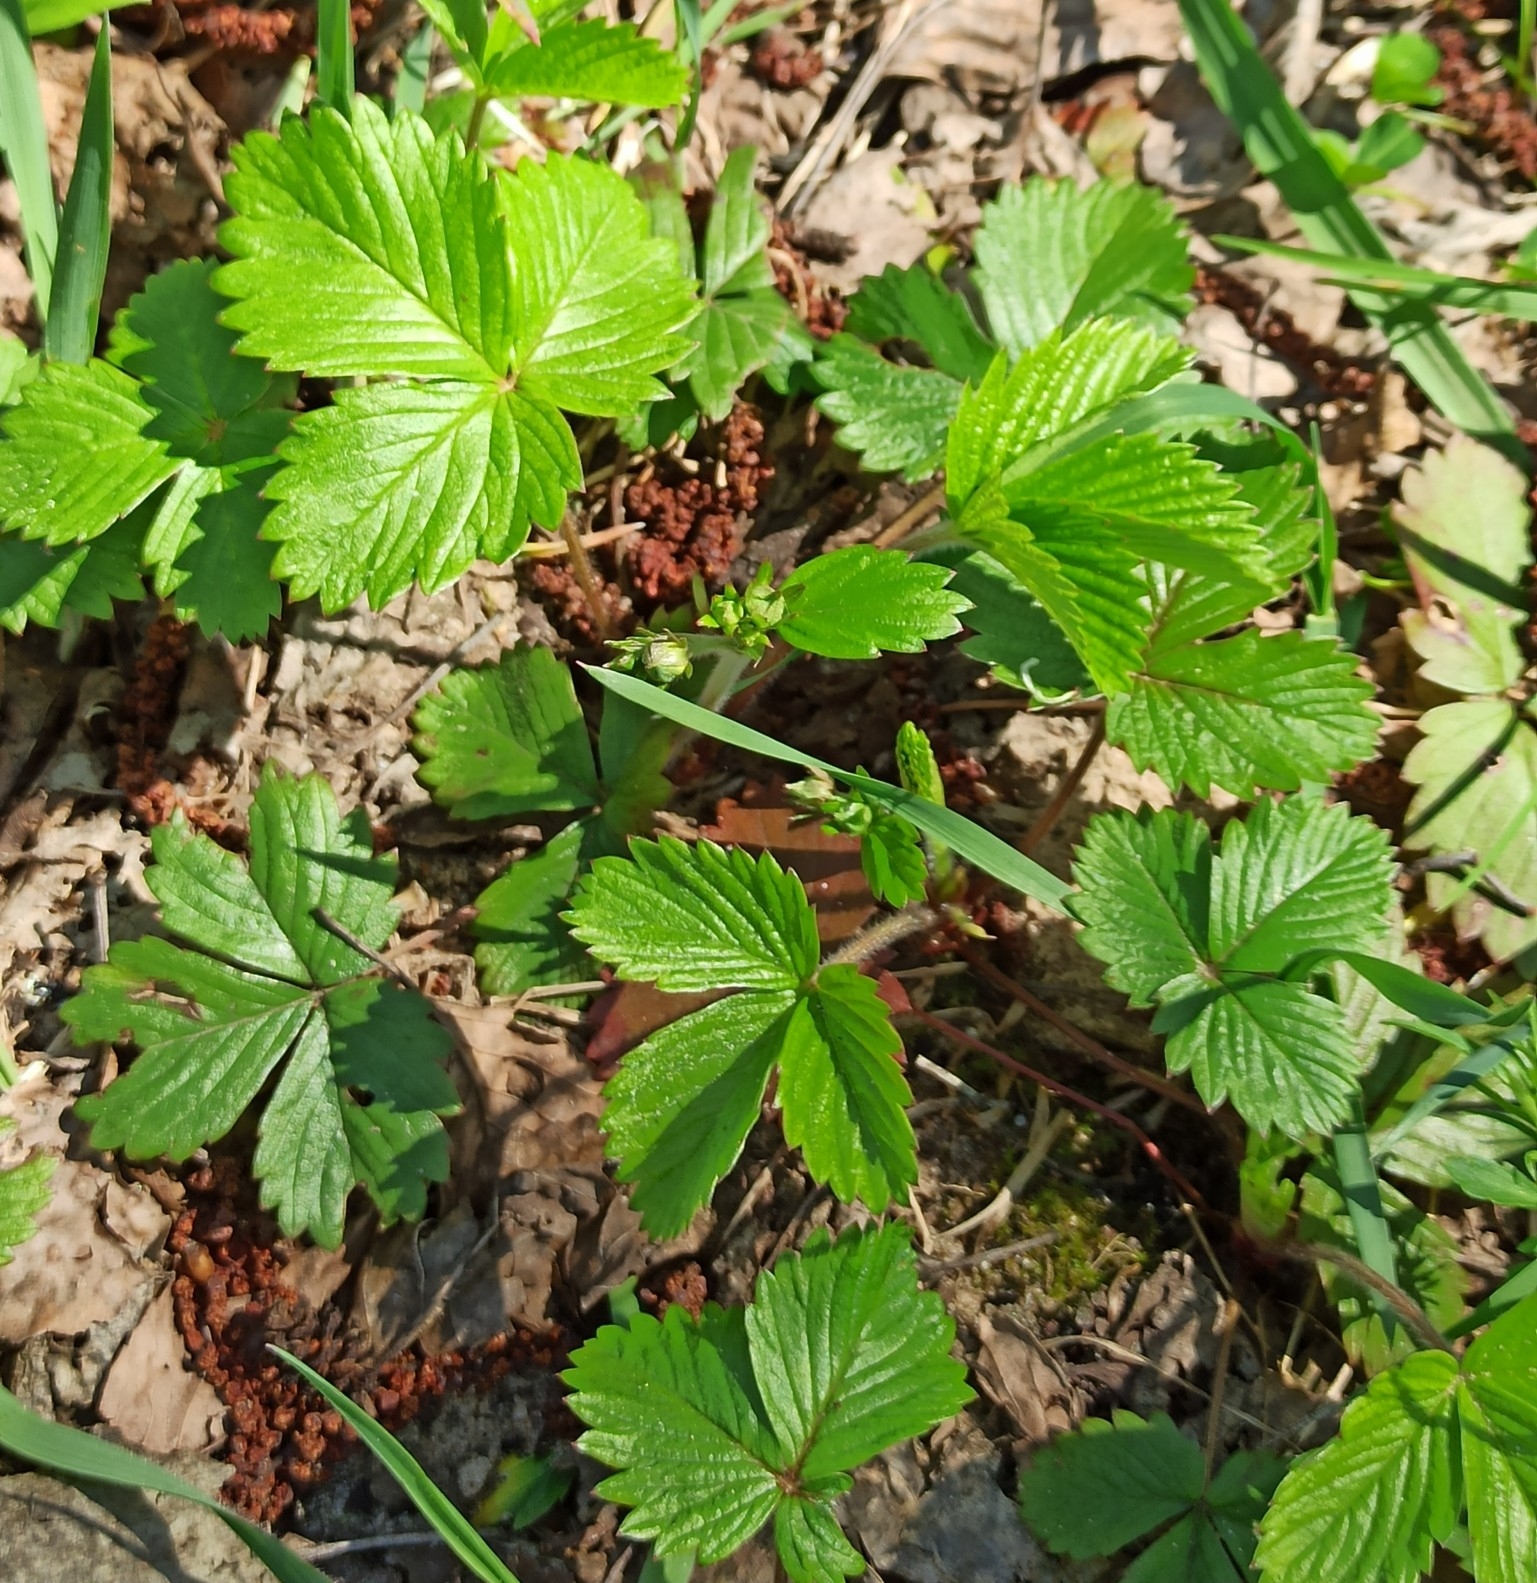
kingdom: Plantae
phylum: Tracheophyta
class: Magnoliopsida
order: Rosales
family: Rosaceae
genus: Fragaria
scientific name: Fragaria vesca
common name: Wild strawberry
